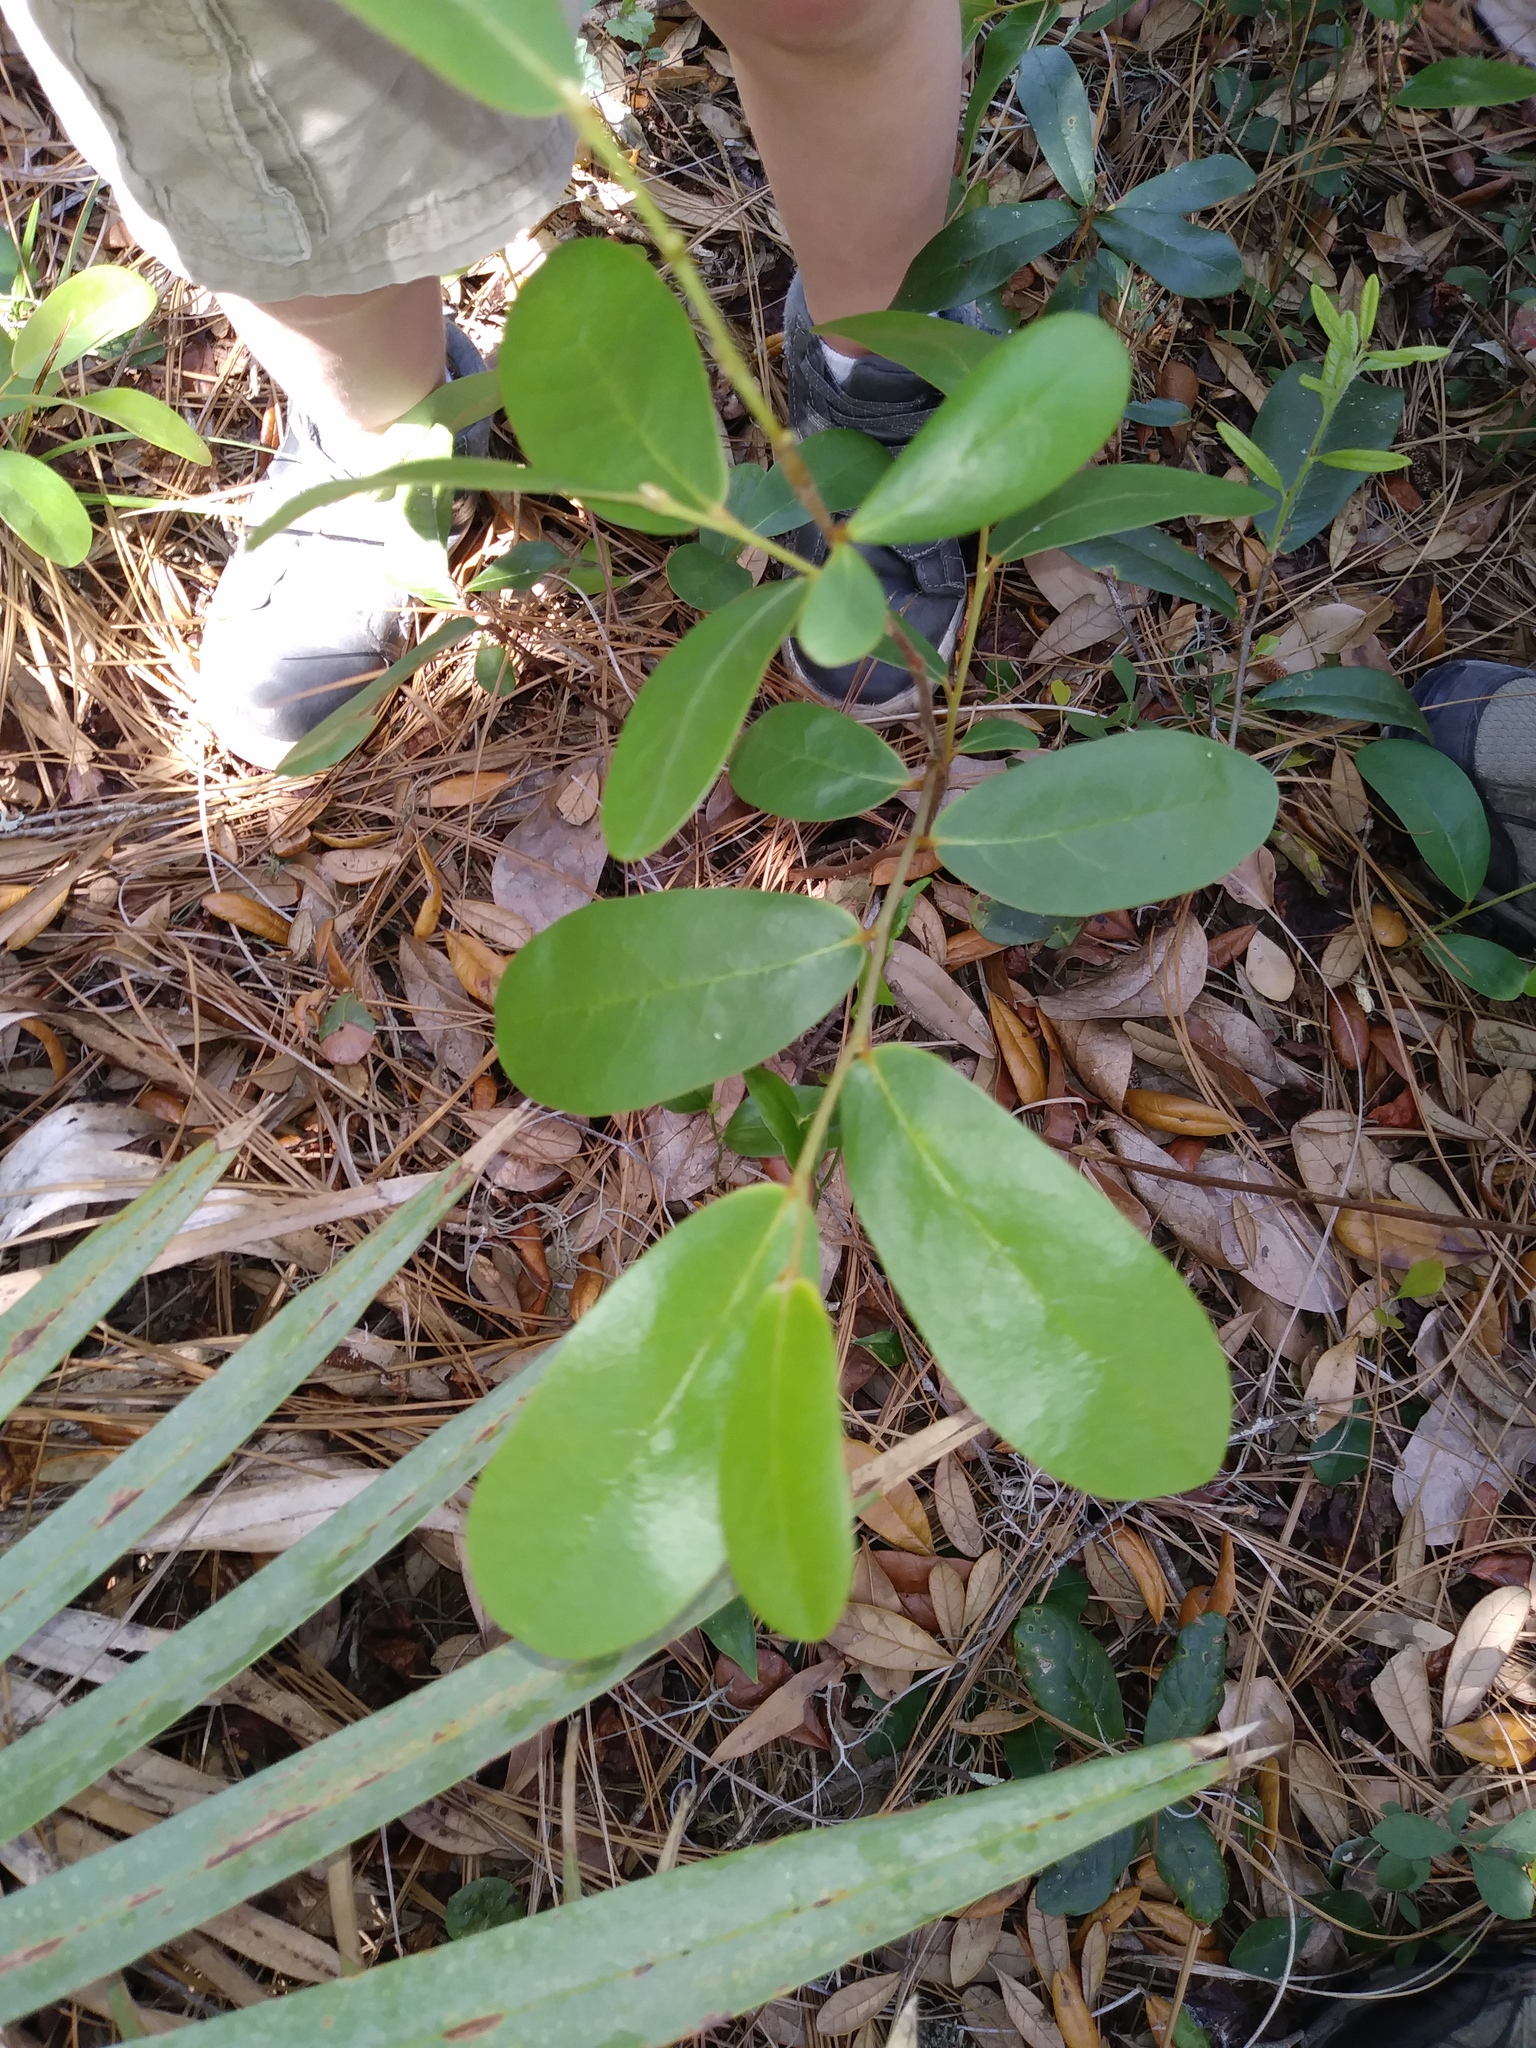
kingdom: Plantae
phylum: Tracheophyta
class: Magnoliopsida
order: Magnoliales
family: Annonaceae
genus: Asimina
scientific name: Asimina obovata
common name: Flag pawpaw
